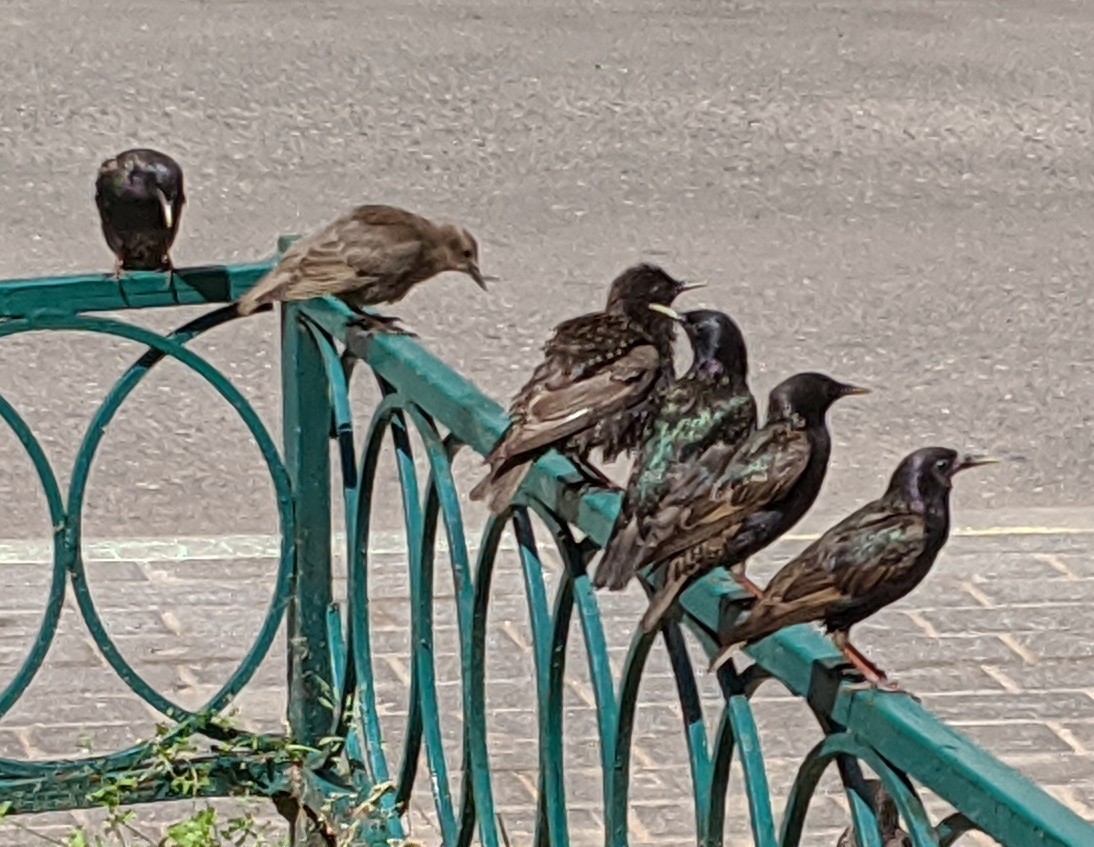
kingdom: Animalia
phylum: Chordata
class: Aves
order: Passeriformes
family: Sturnidae
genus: Sturnus
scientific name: Sturnus vulgaris
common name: Common starling
